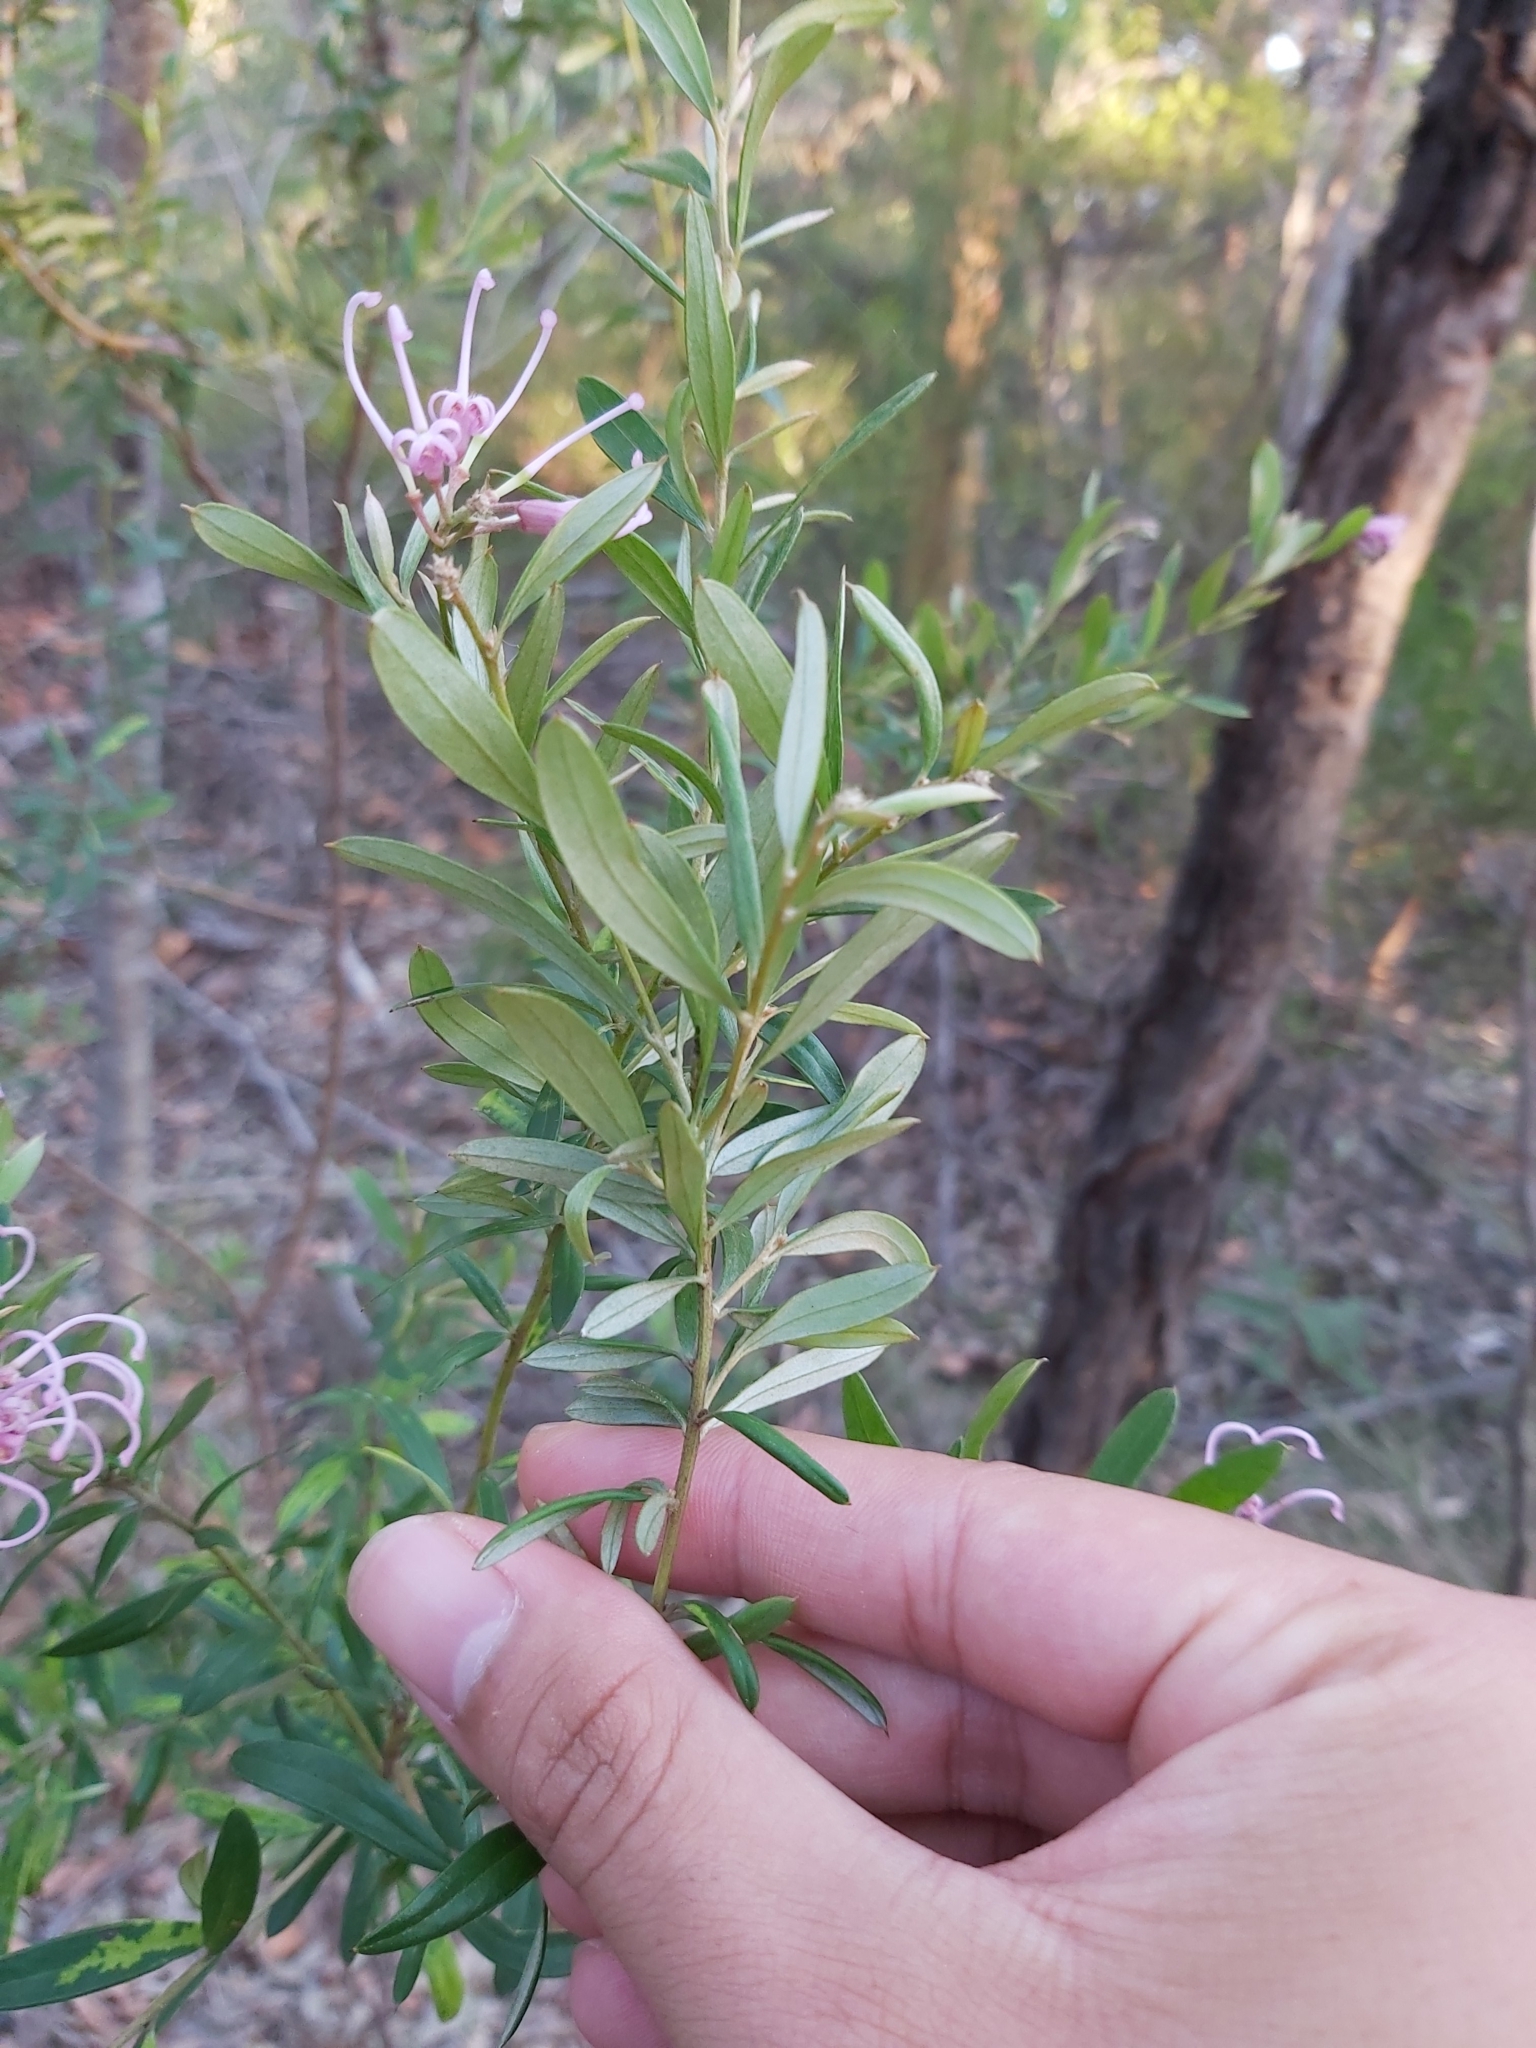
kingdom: Plantae
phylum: Tracheophyta
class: Magnoliopsida
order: Proteales
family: Proteaceae
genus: Grevillea
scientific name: Grevillea sericea
